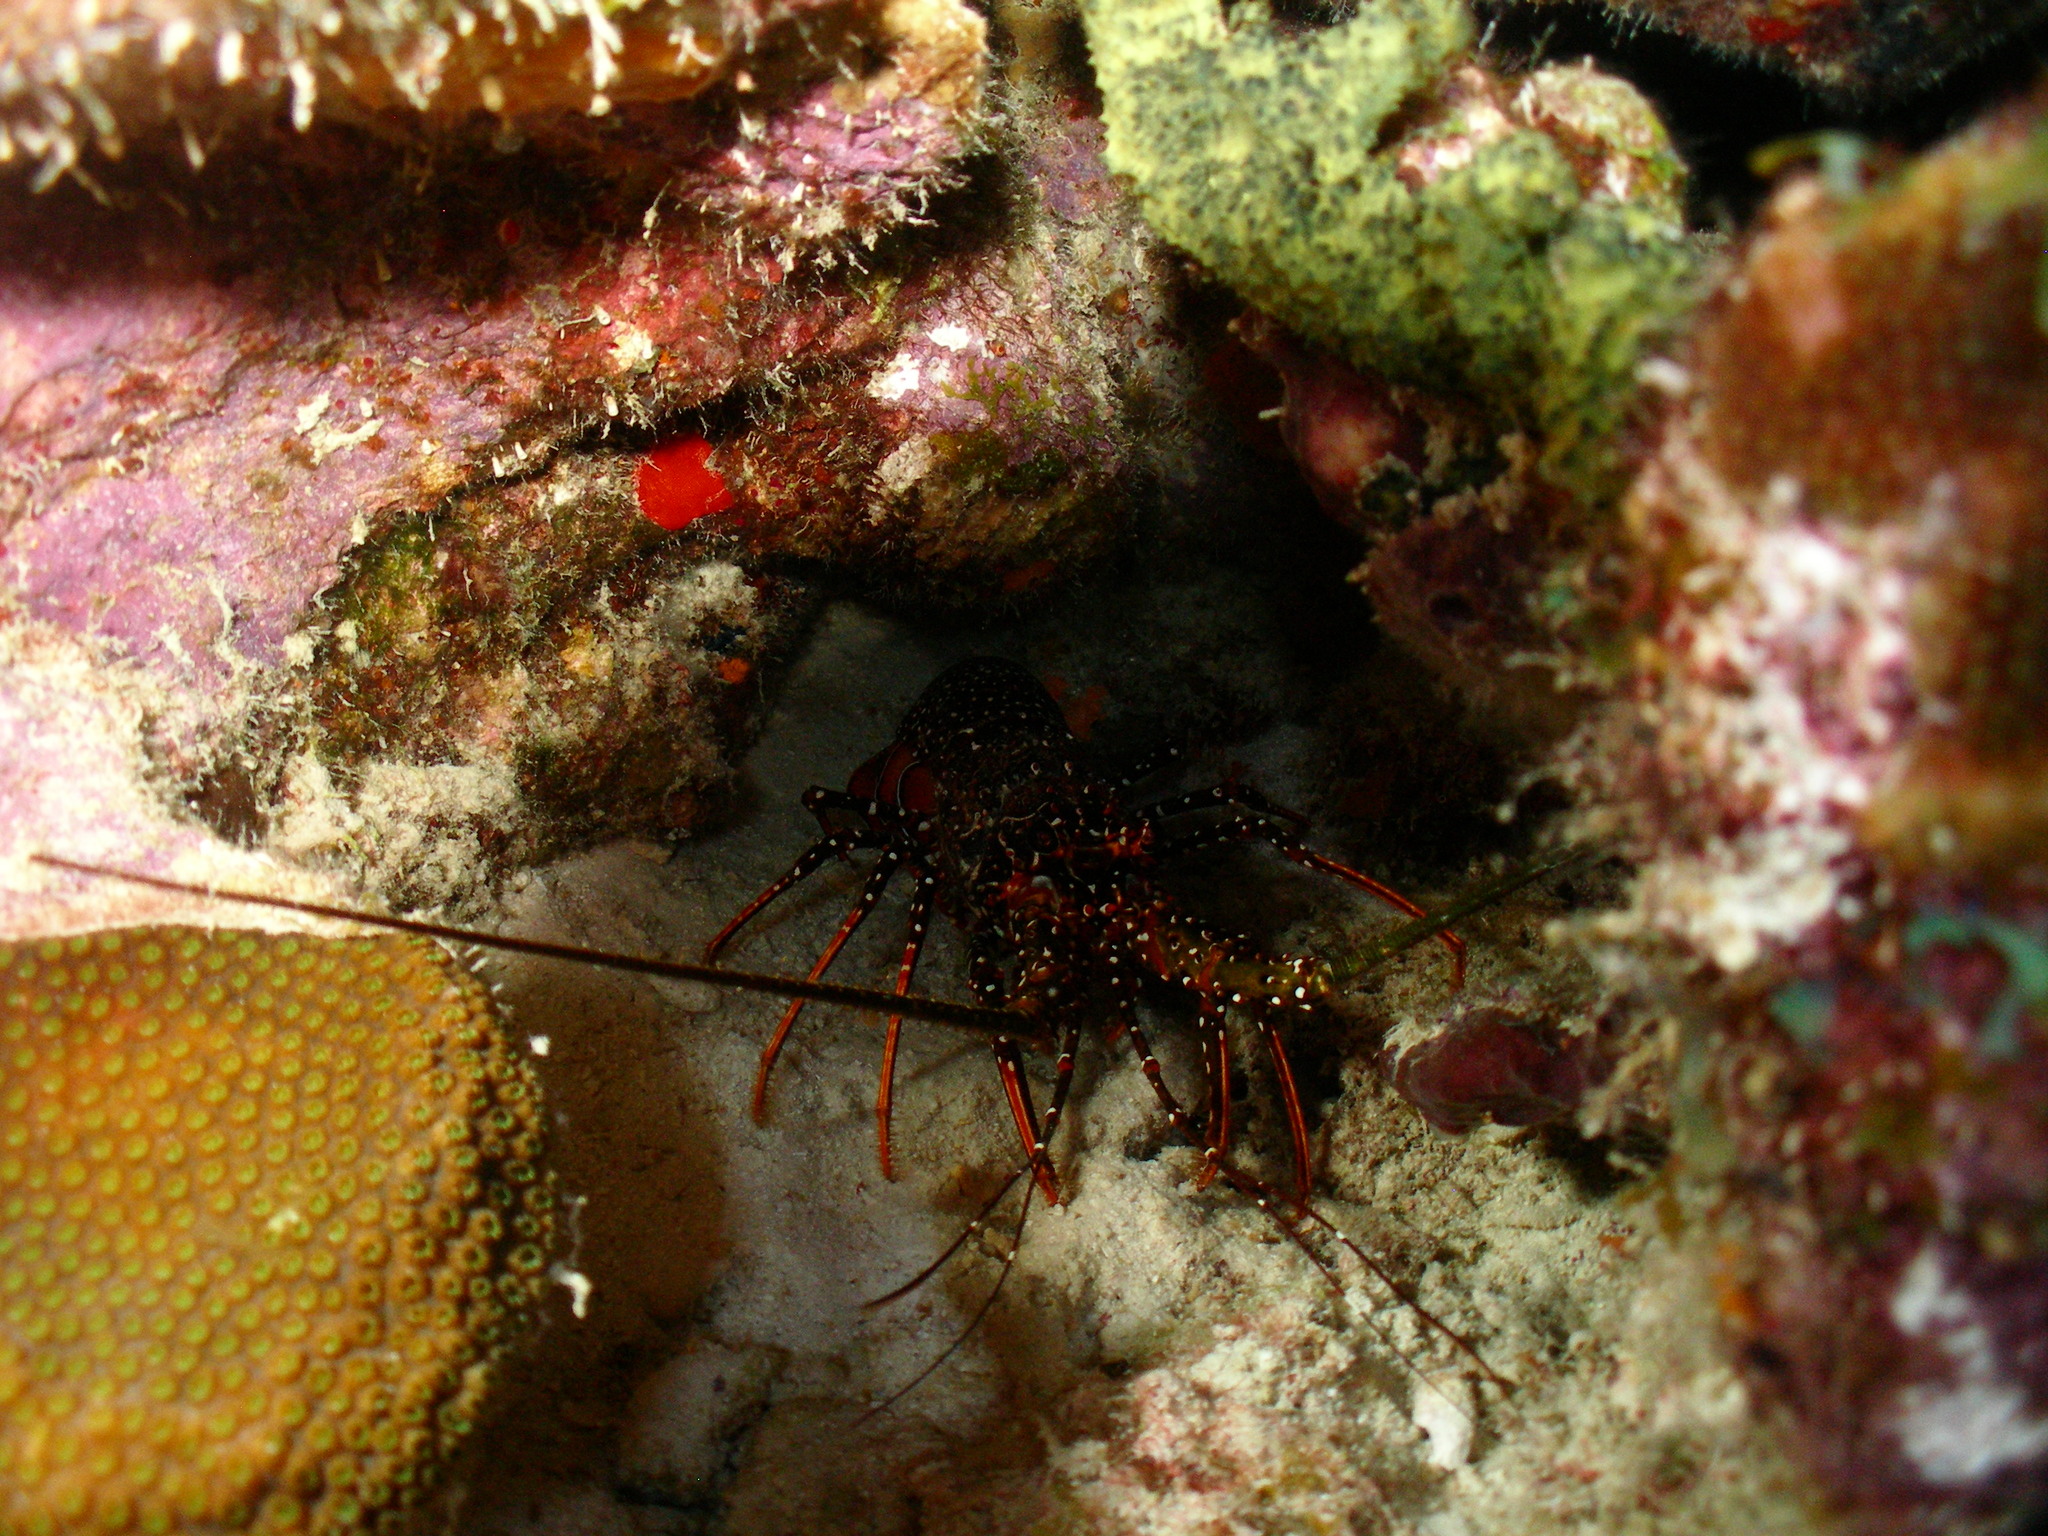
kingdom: Animalia
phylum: Arthropoda
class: Malacostraca
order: Decapoda
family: Palinuridae
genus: Panulirus
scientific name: Panulirus guttatus
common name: Spotted spiny lobster
